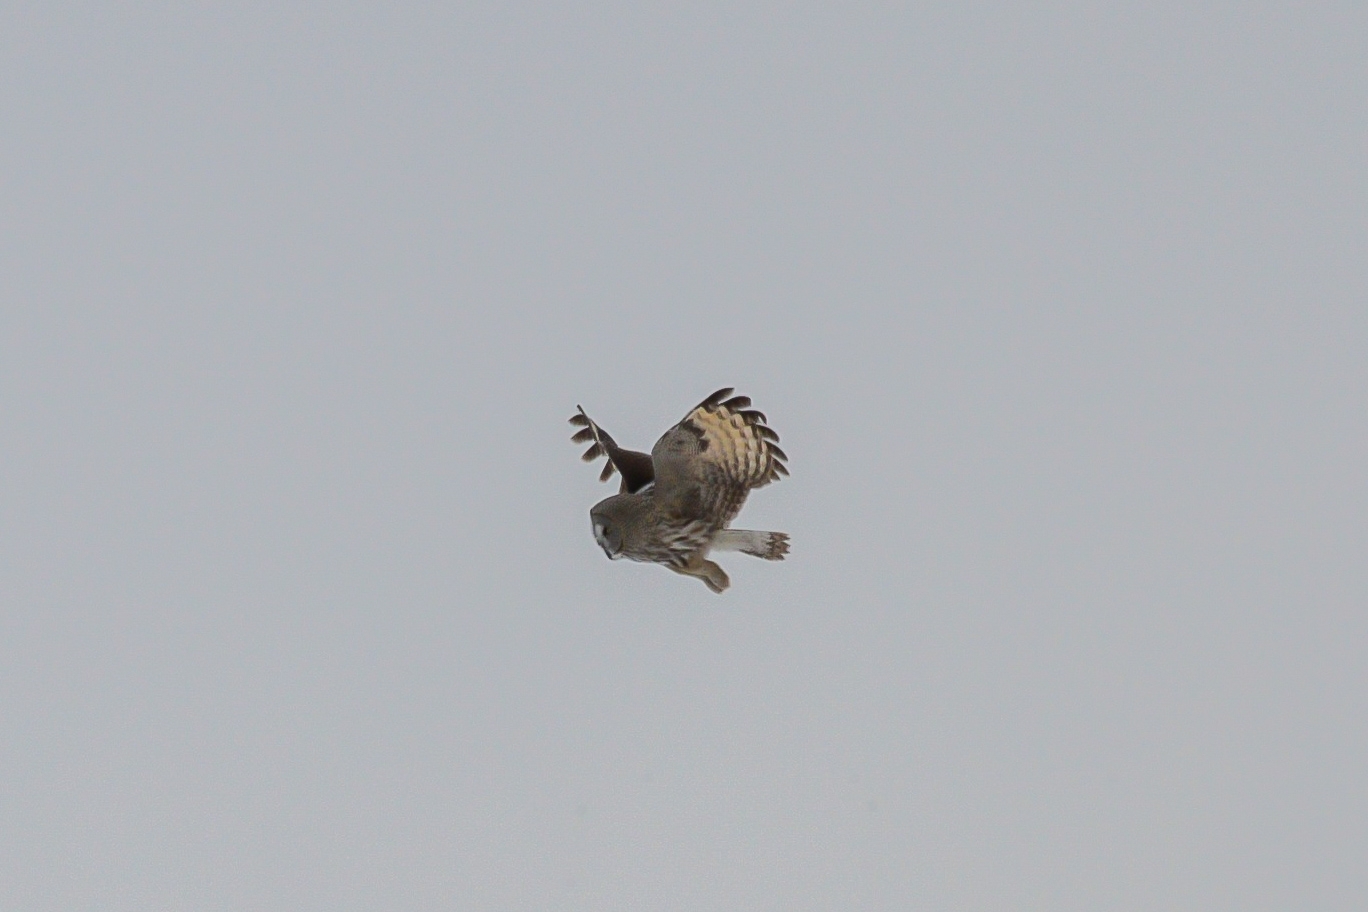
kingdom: Animalia
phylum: Chordata
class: Aves
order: Strigiformes
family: Strigidae
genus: Strix
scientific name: Strix nebulosa
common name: Great grey owl
